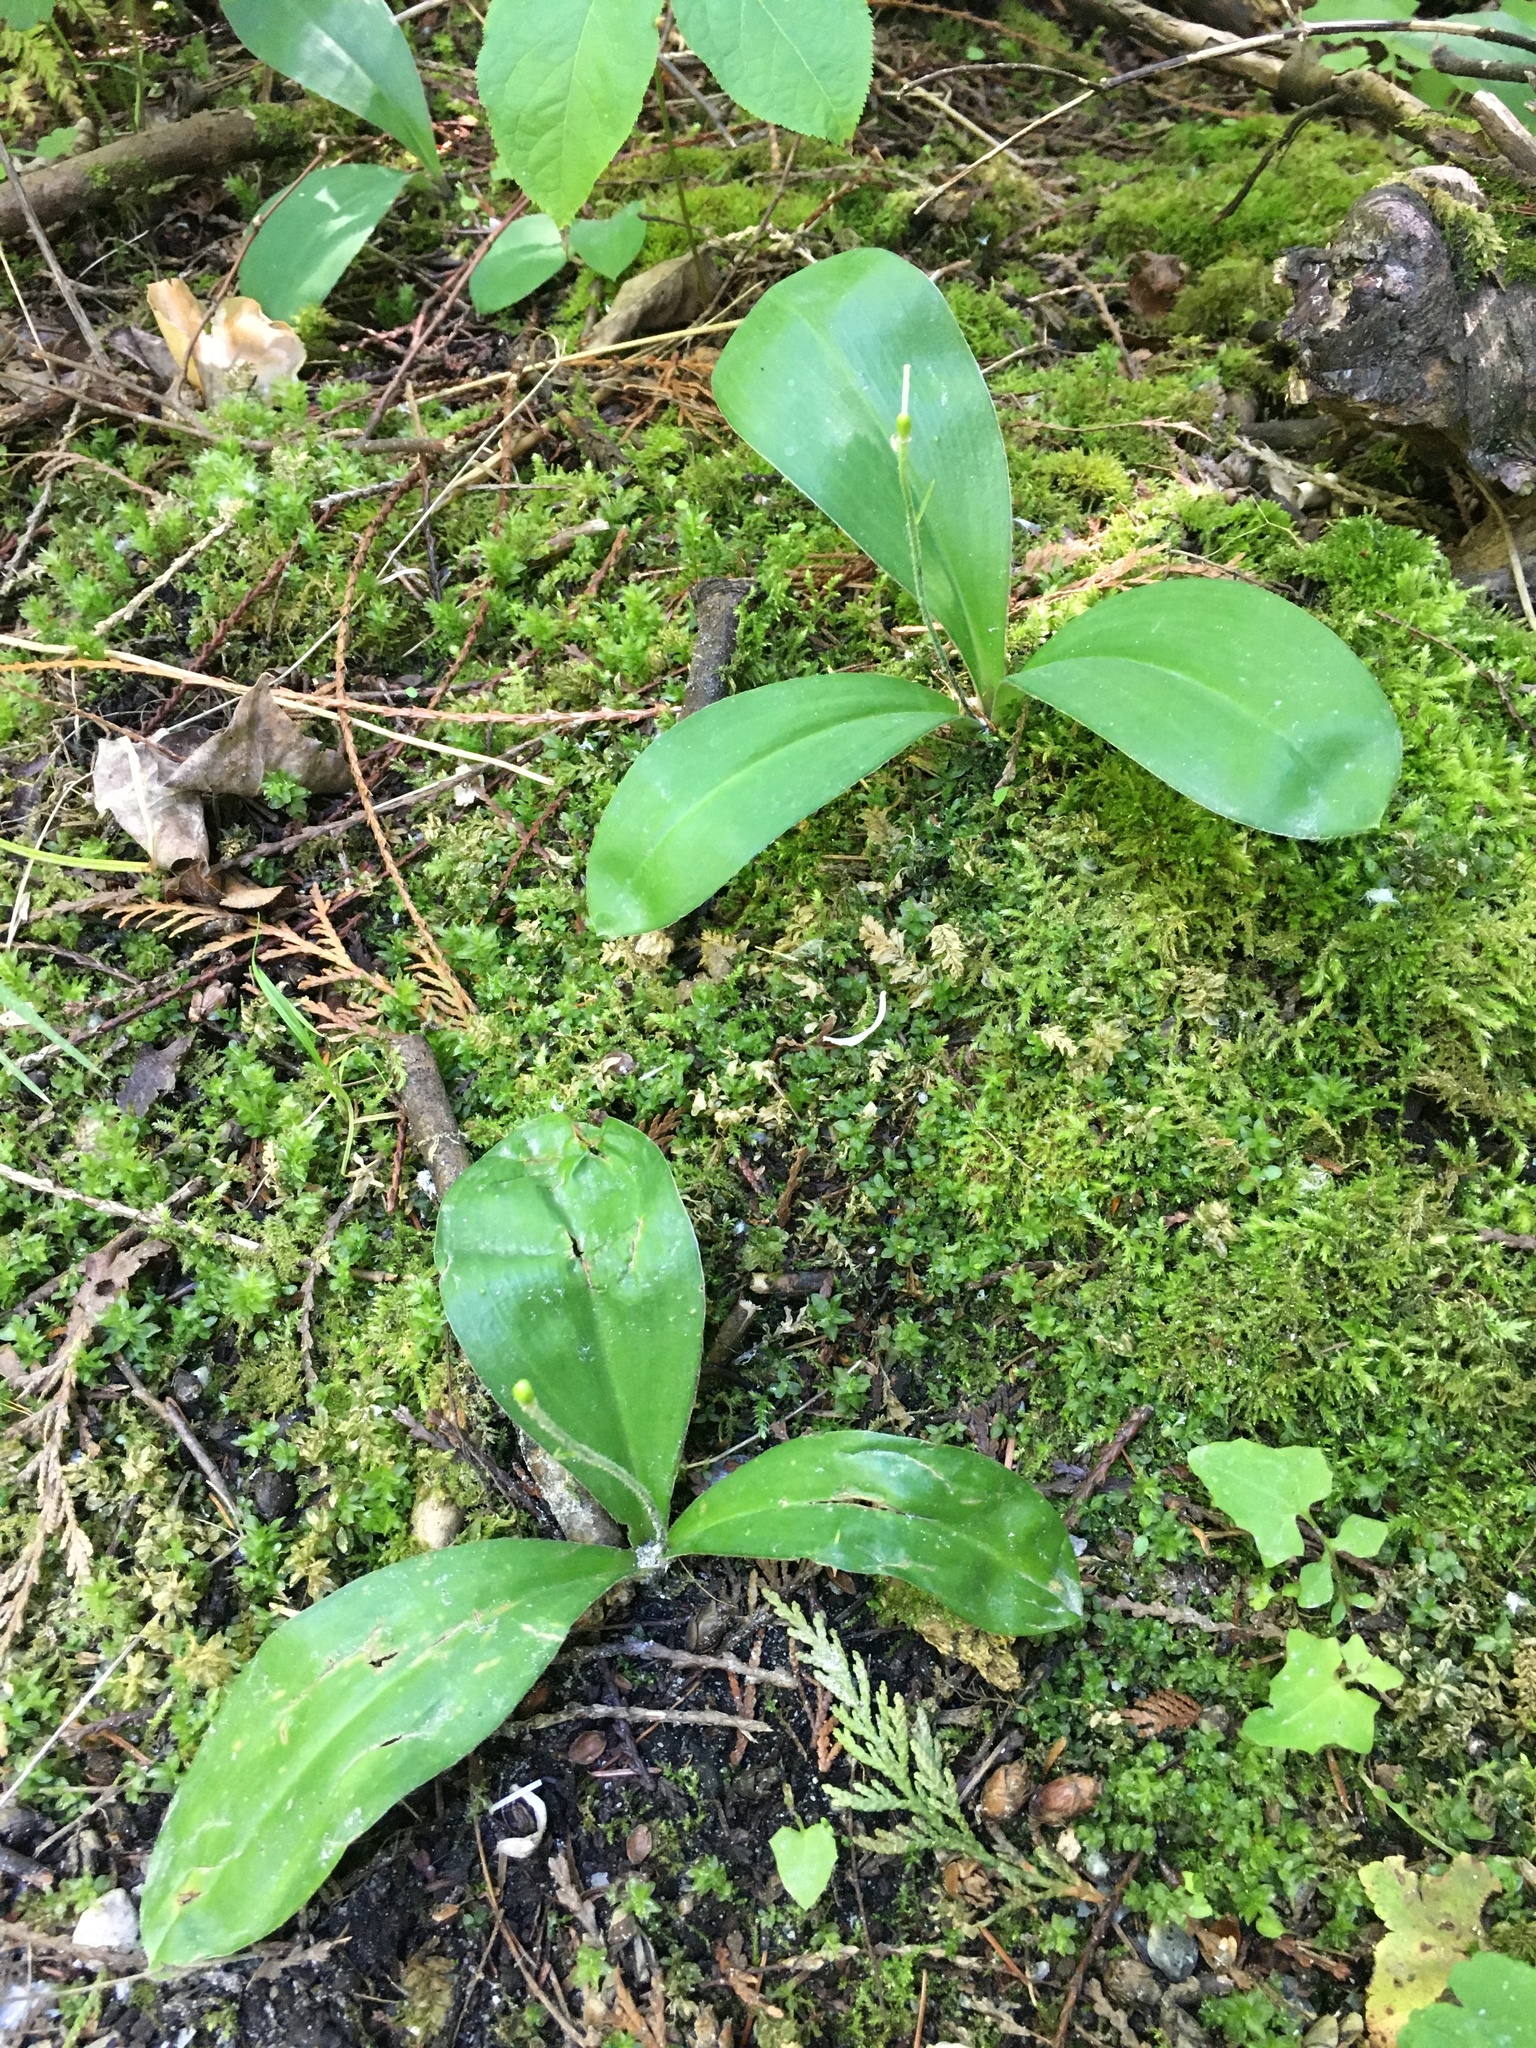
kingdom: Plantae
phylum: Tracheophyta
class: Liliopsida
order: Liliales
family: Liliaceae
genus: Clintonia
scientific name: Clintonia uniflora
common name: Queen's cup
